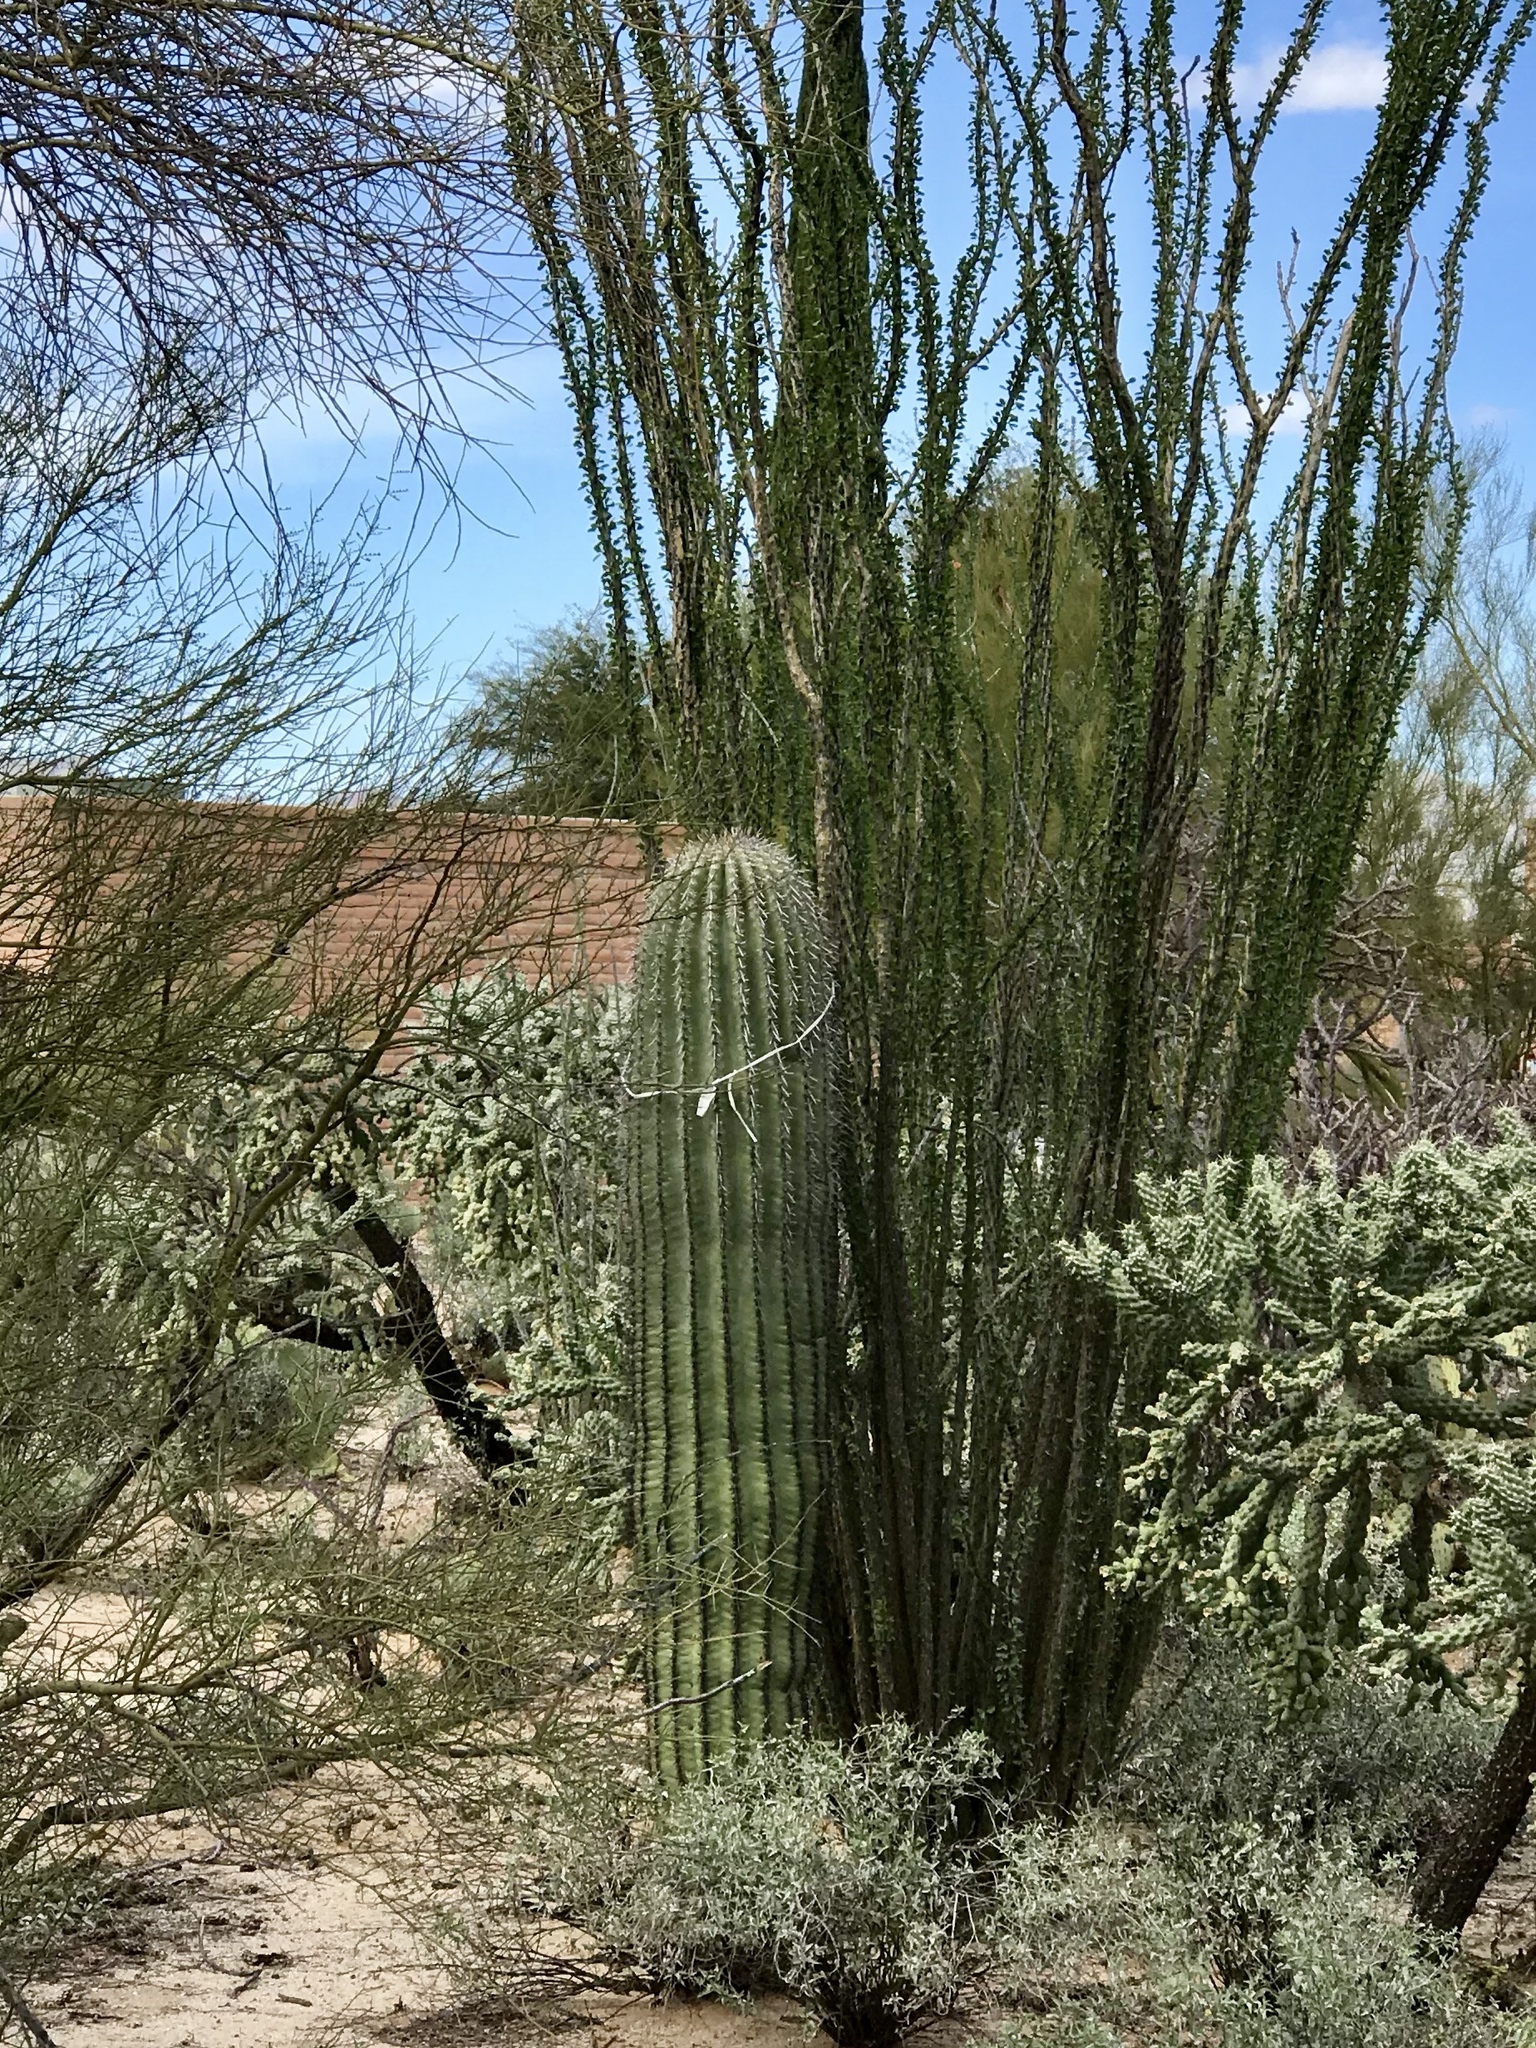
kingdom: Plantae
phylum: Tracheophyta
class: Magnoliopsida
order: Caryophyllales
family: Cactaceae
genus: Carnegiea
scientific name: Carnegiea gigantea
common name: Saguaro
